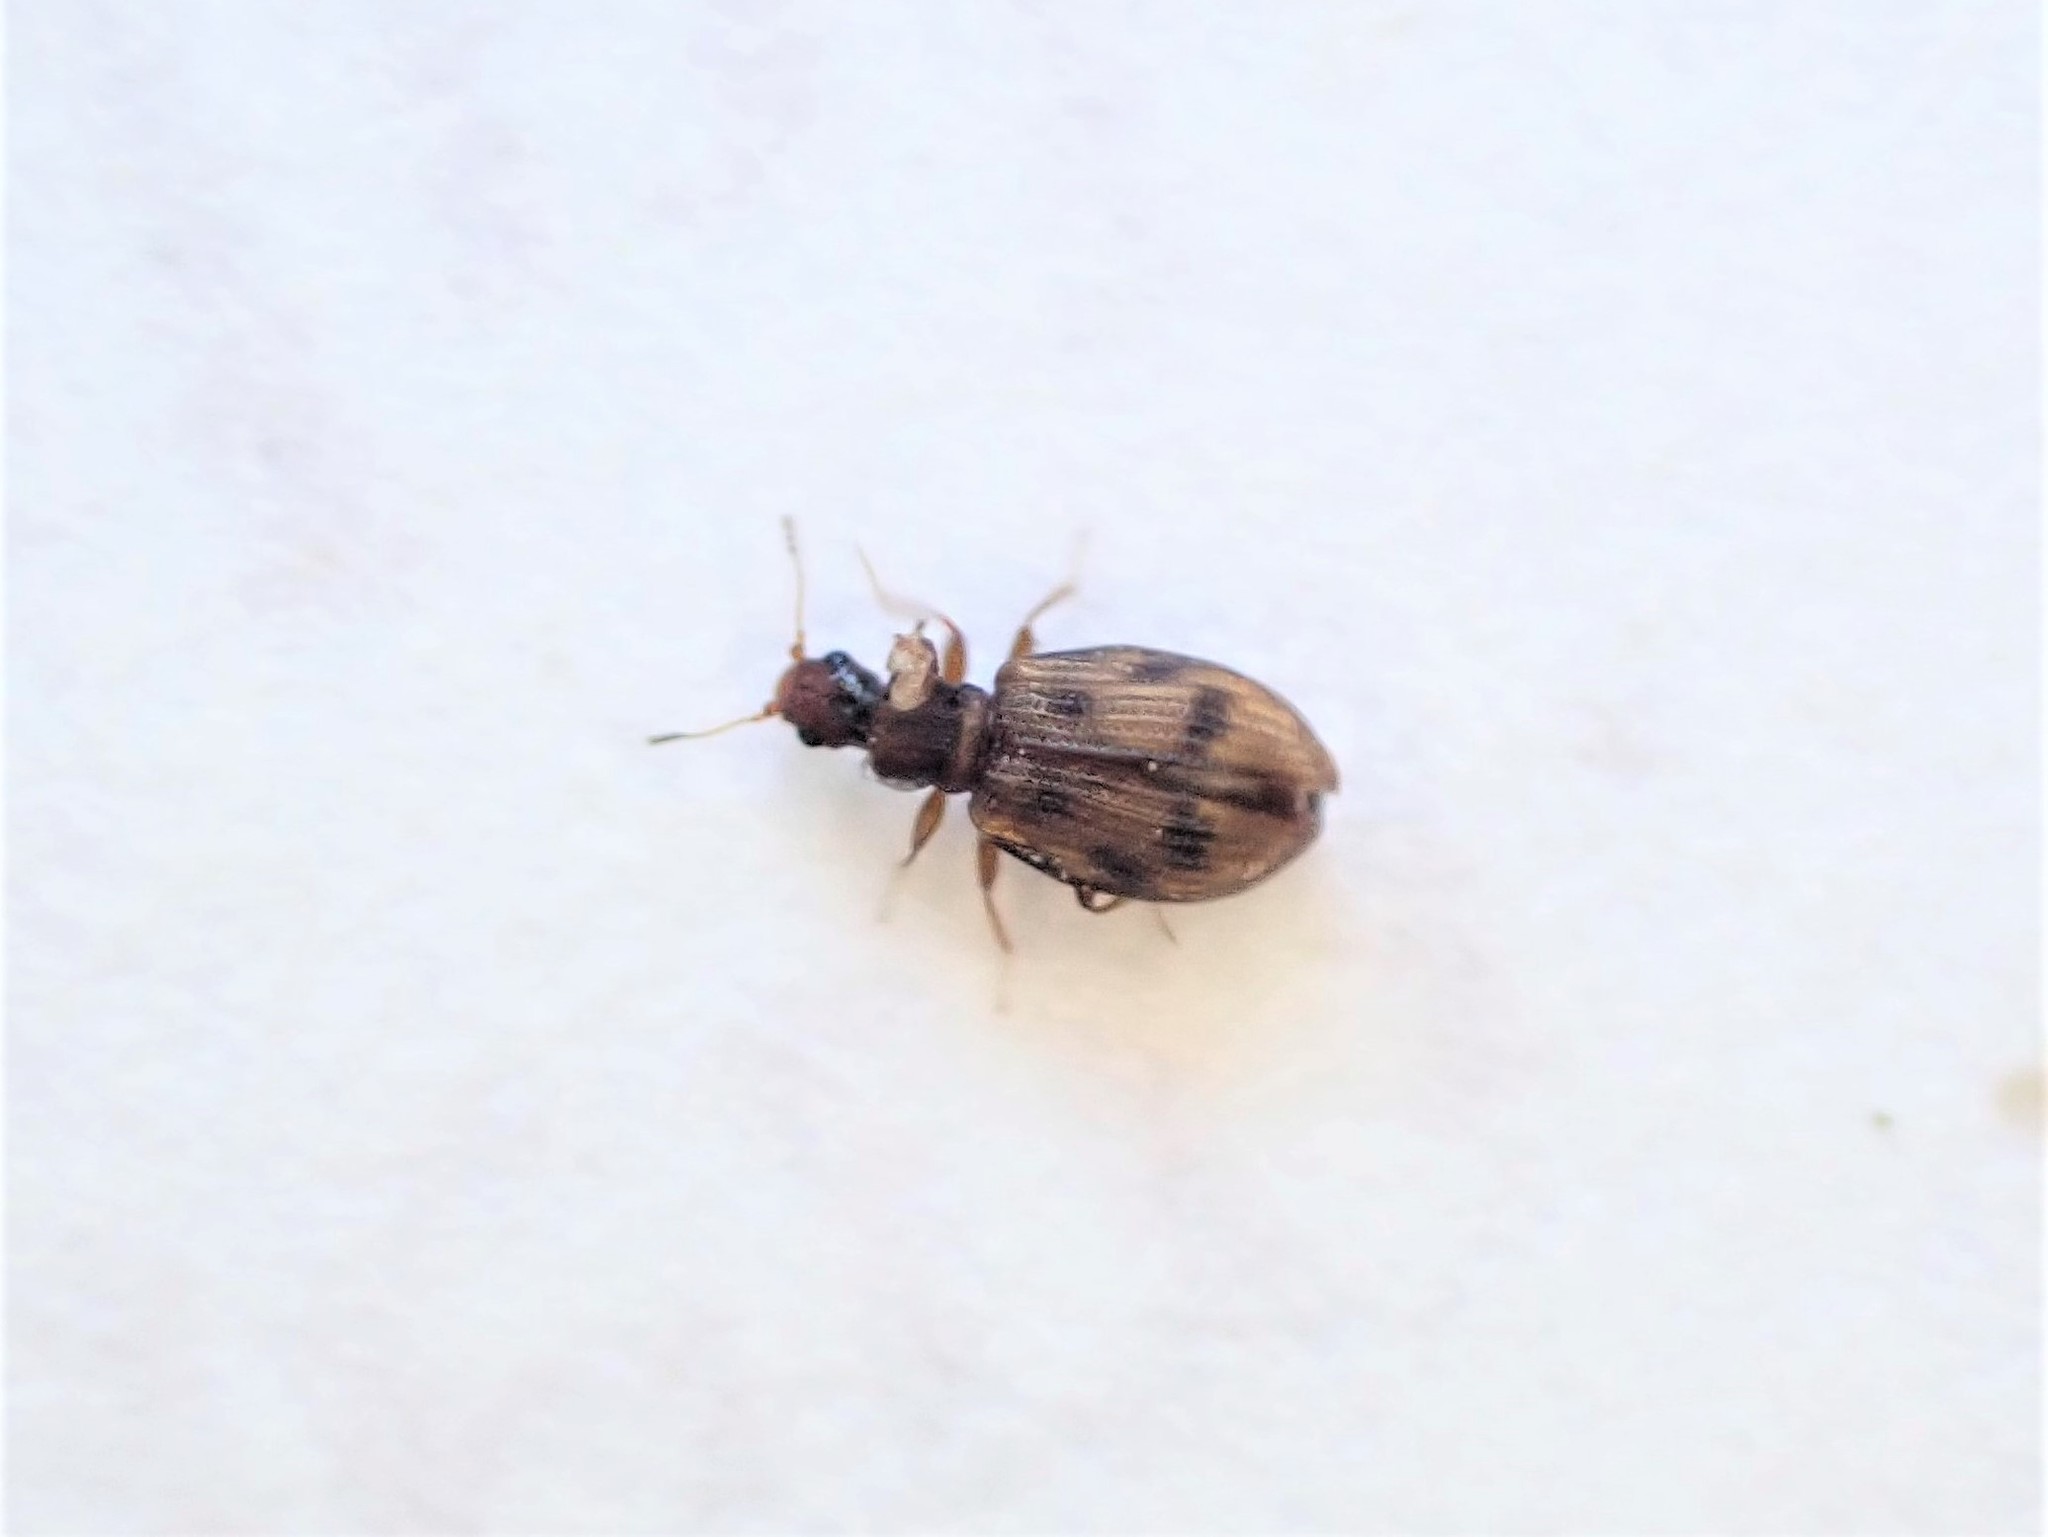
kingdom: Animalia
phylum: Arthropoda
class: Insecta
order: Coleoptera
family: Latridiidae
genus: Cartodere
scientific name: Cartodere bifasciata
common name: Plaster beetle
